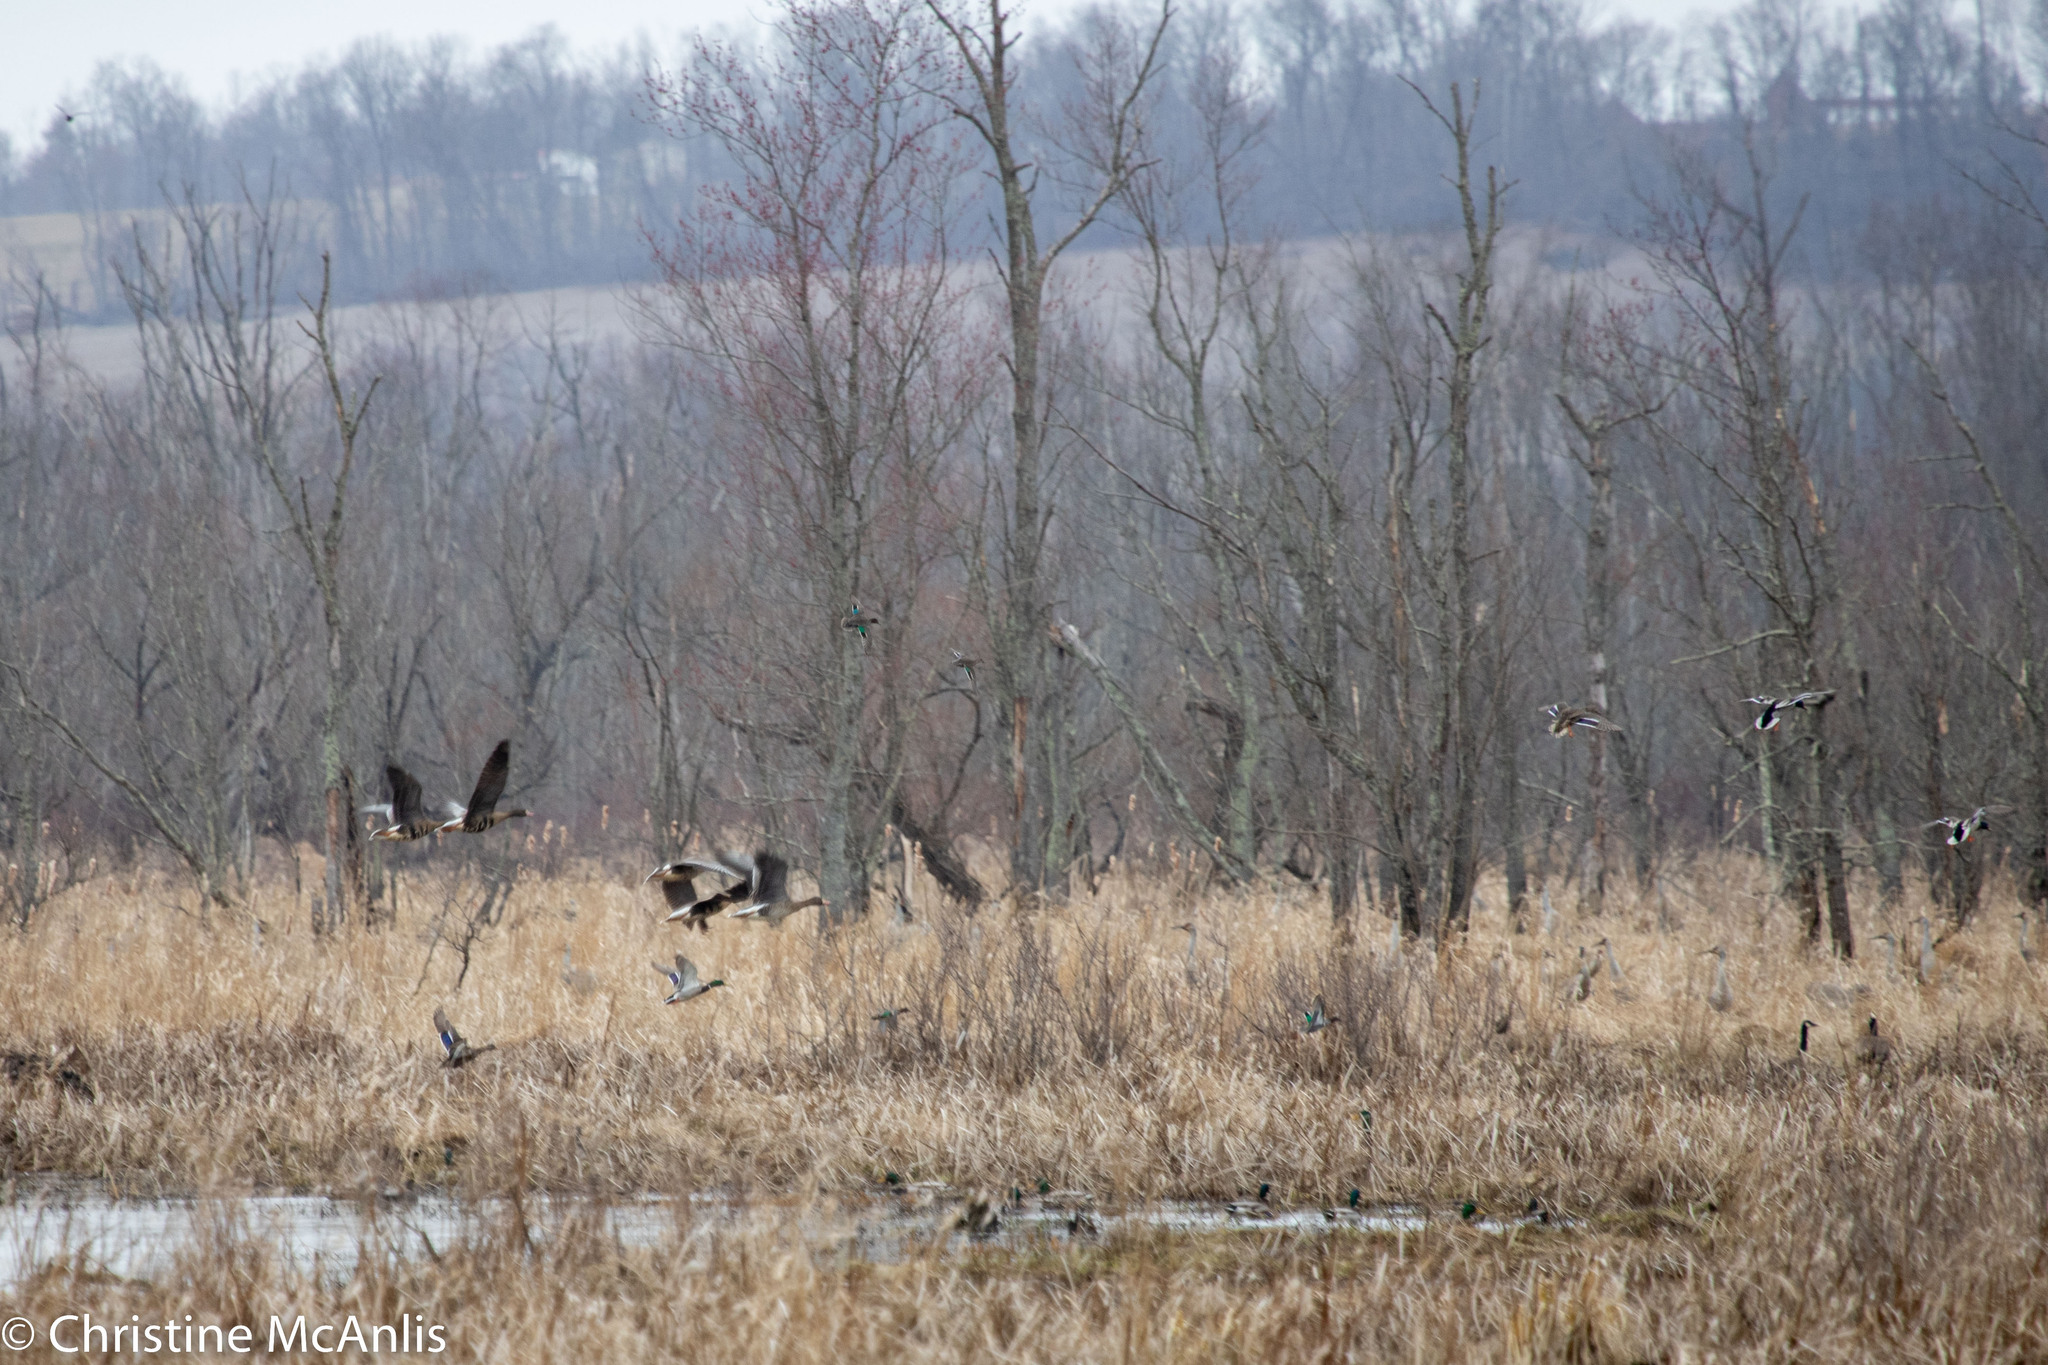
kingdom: Animalia
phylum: Chordata
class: Aves
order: Anseriformes
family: Anatidae
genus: Anser
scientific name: Anser albifrons
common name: Greater white-fronted goose
